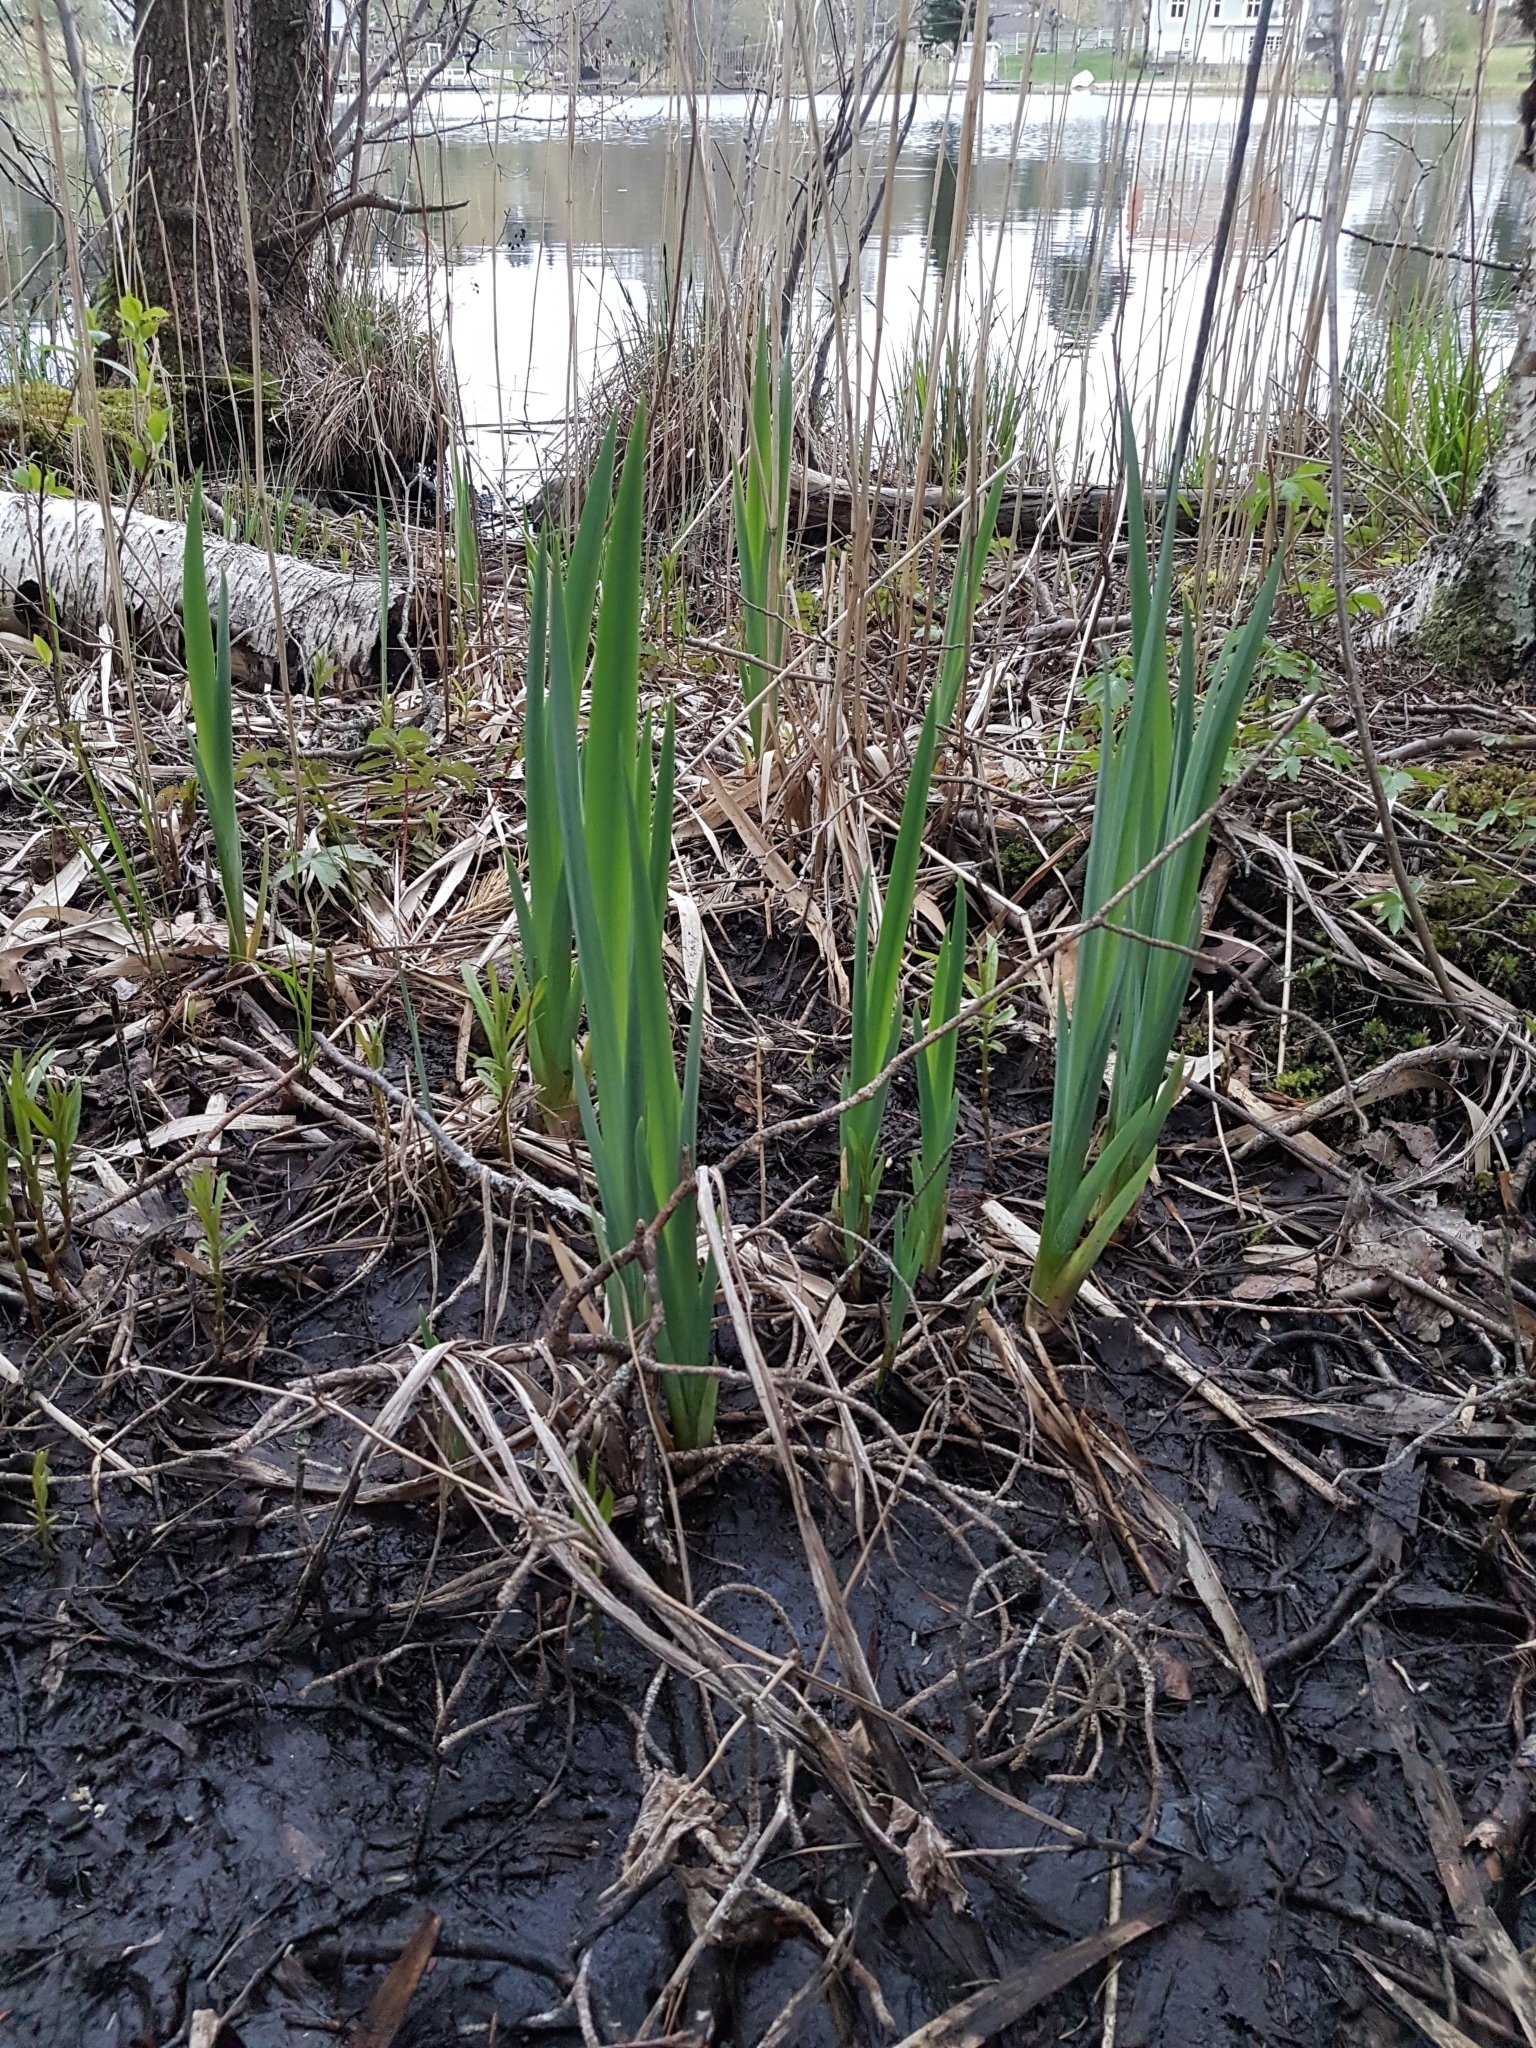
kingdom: Plantae
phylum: Tracheophyta
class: Liliopsida
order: Asparagales
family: Iridaceae
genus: Iris
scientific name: Iris pseudacorus
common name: Yellow flag
